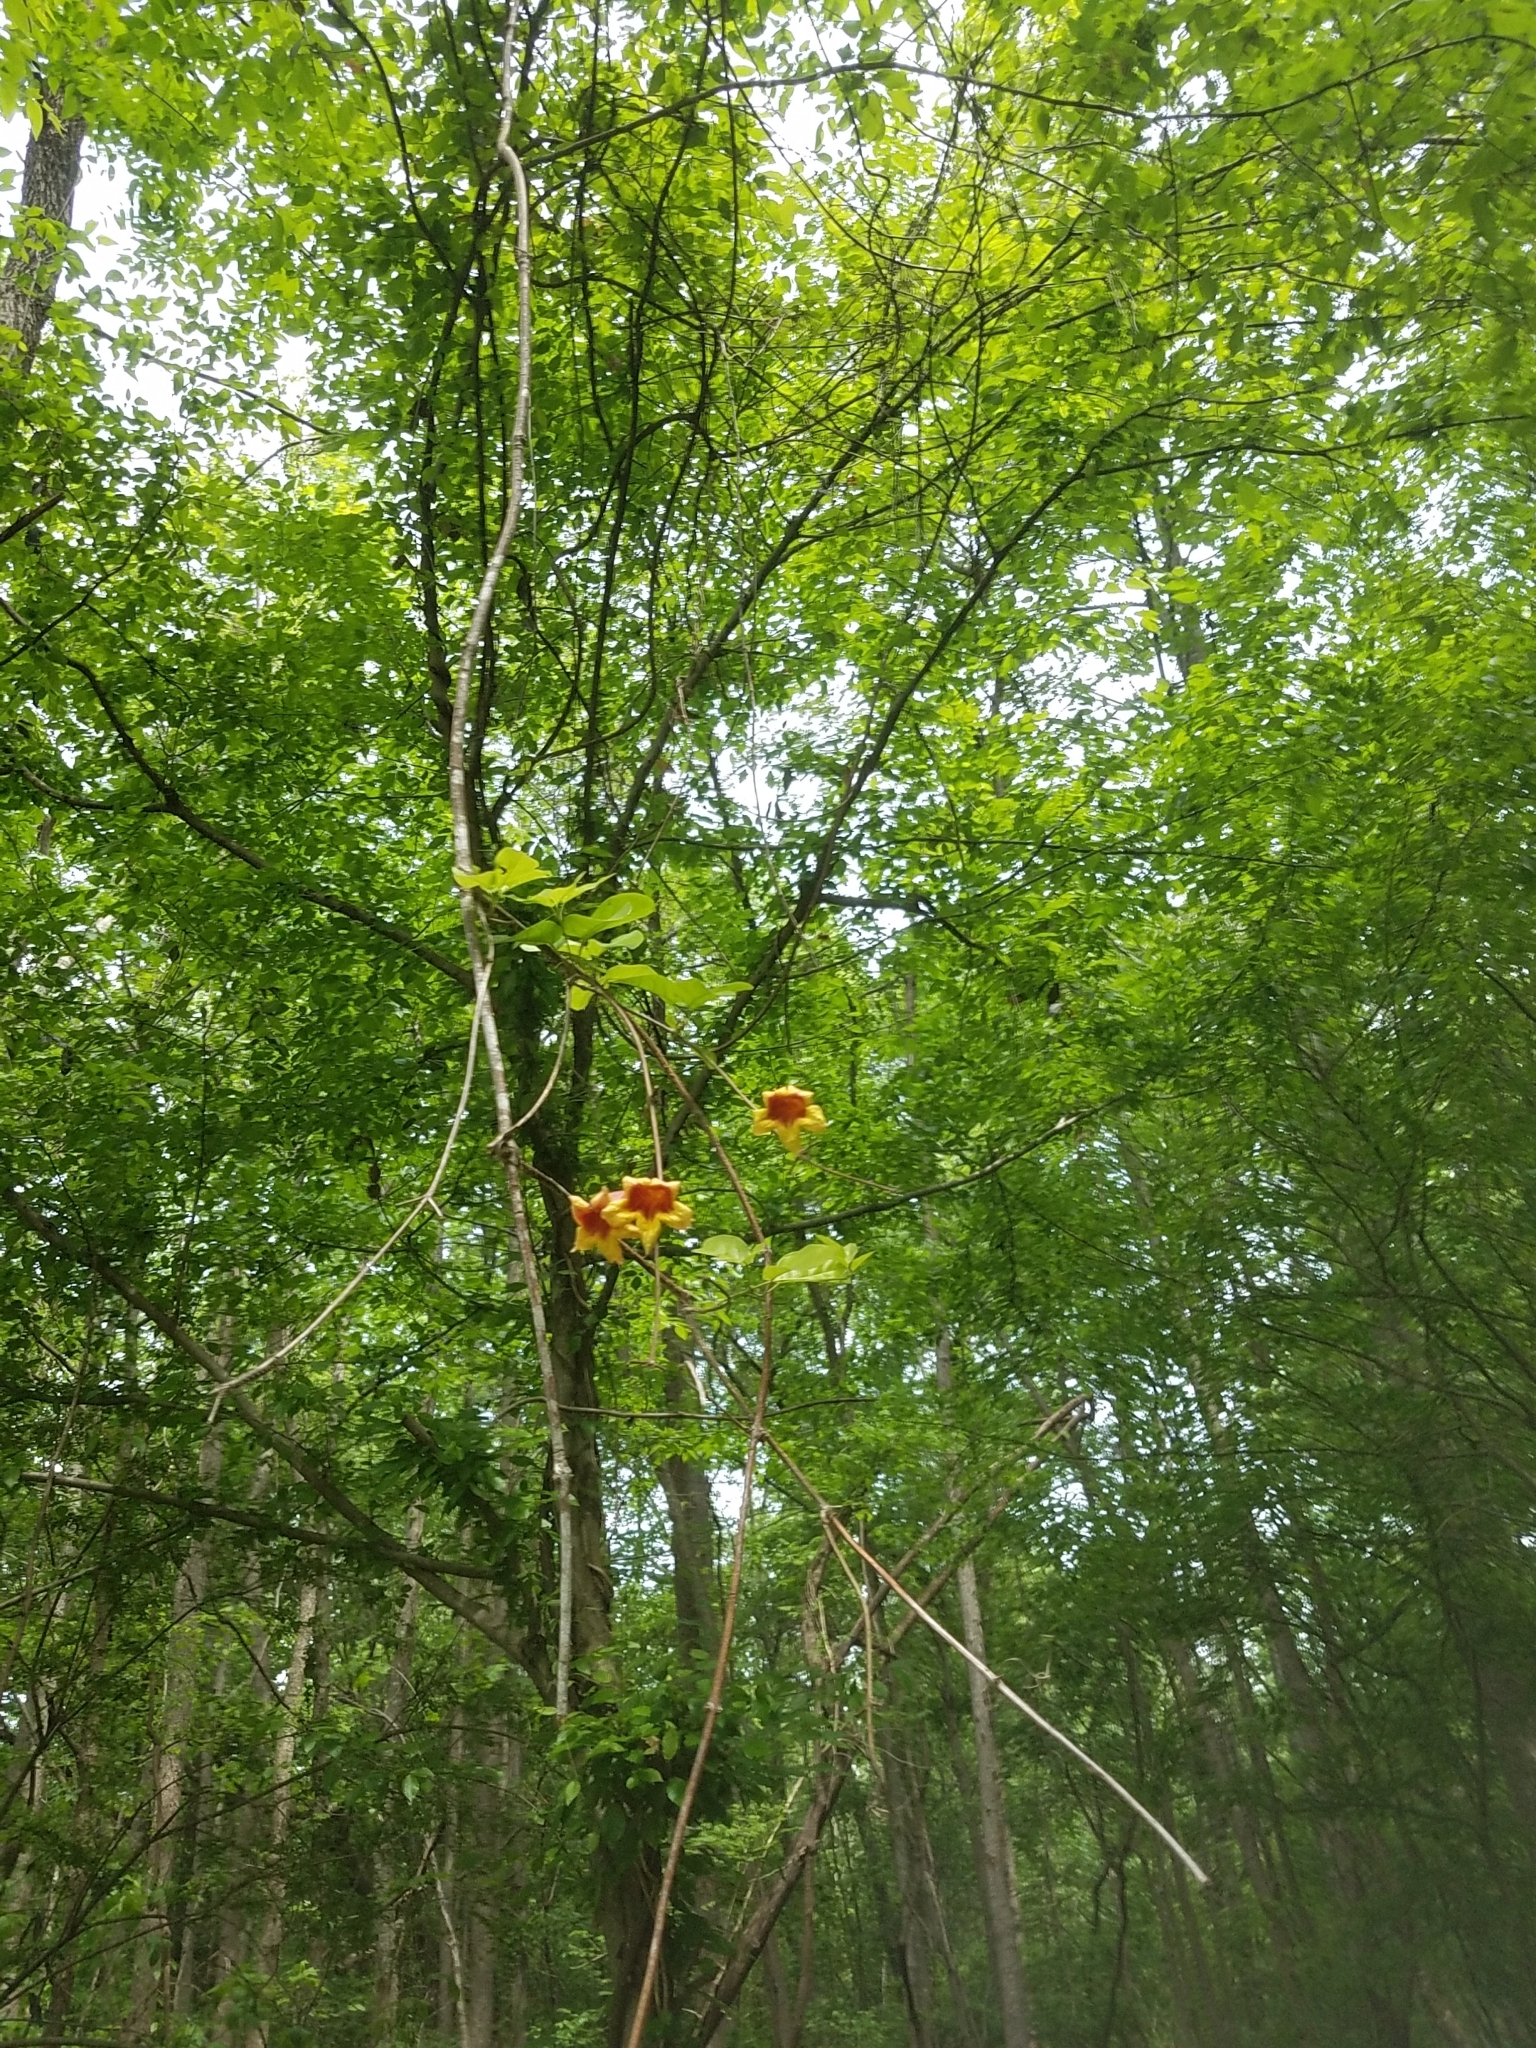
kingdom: Plantae
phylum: Tracheophyta
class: Magnoliopsida
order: Lamiales
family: Bignoniaceae
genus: Bignonia
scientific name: Bignonia capreolata
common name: Crossvine
